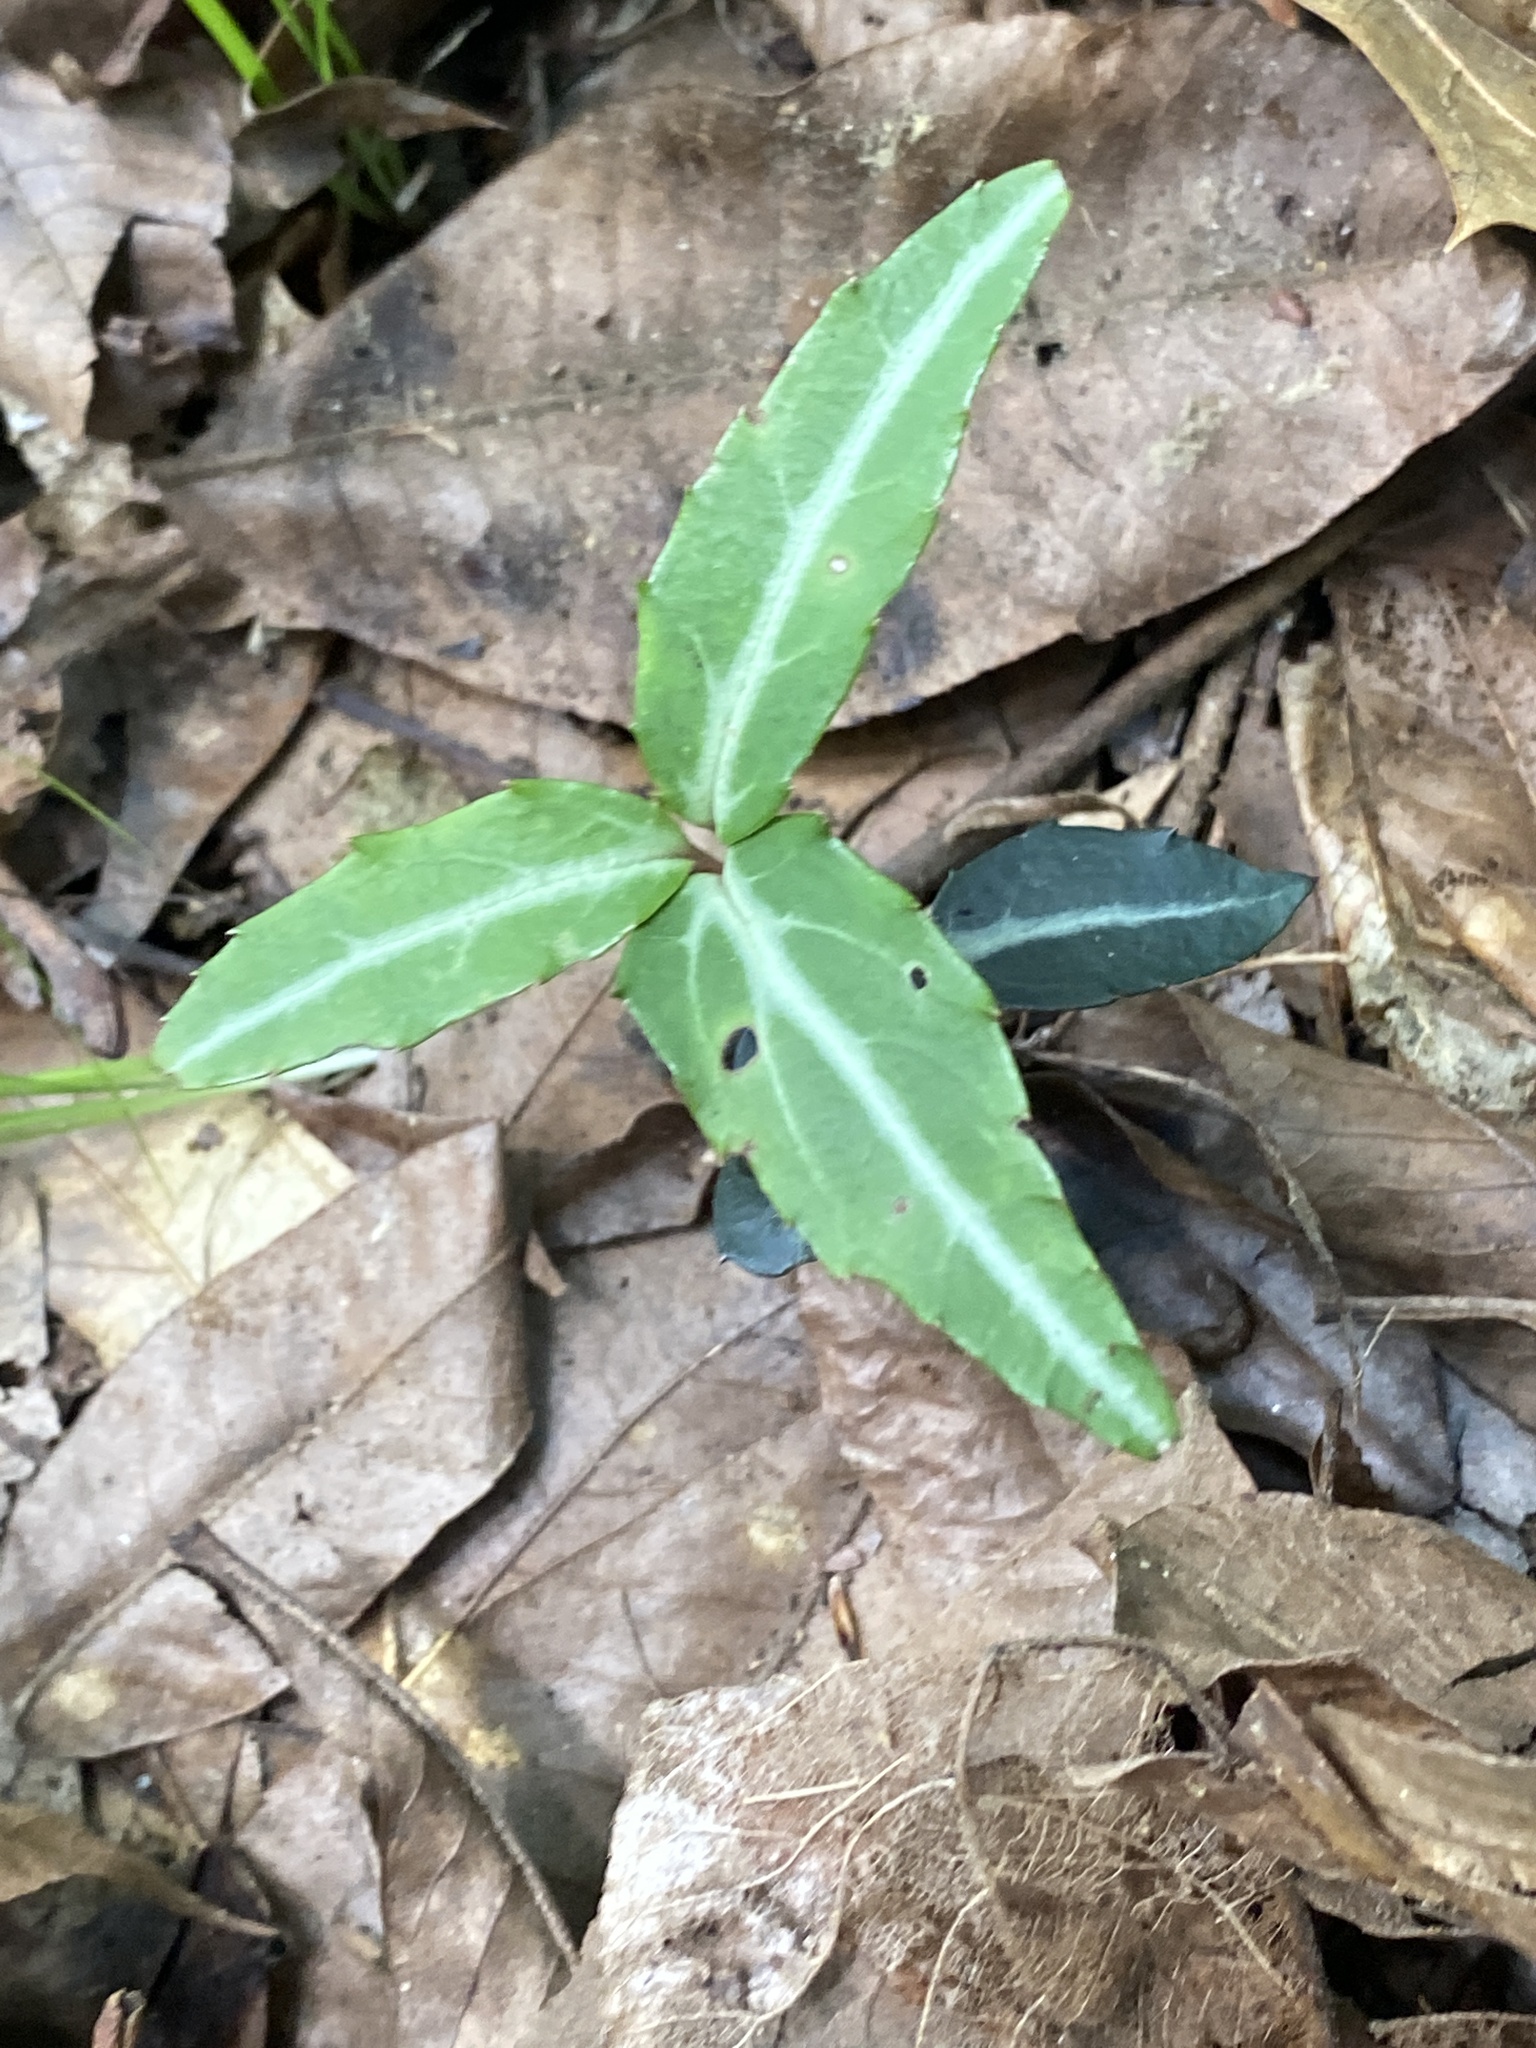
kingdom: Plantae
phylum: Tracheophyta
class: Magnoliopsida
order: Ericales
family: Ericaceae
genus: Chimaphila
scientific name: Chimaphila maculata
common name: Spotted pipsissewa
